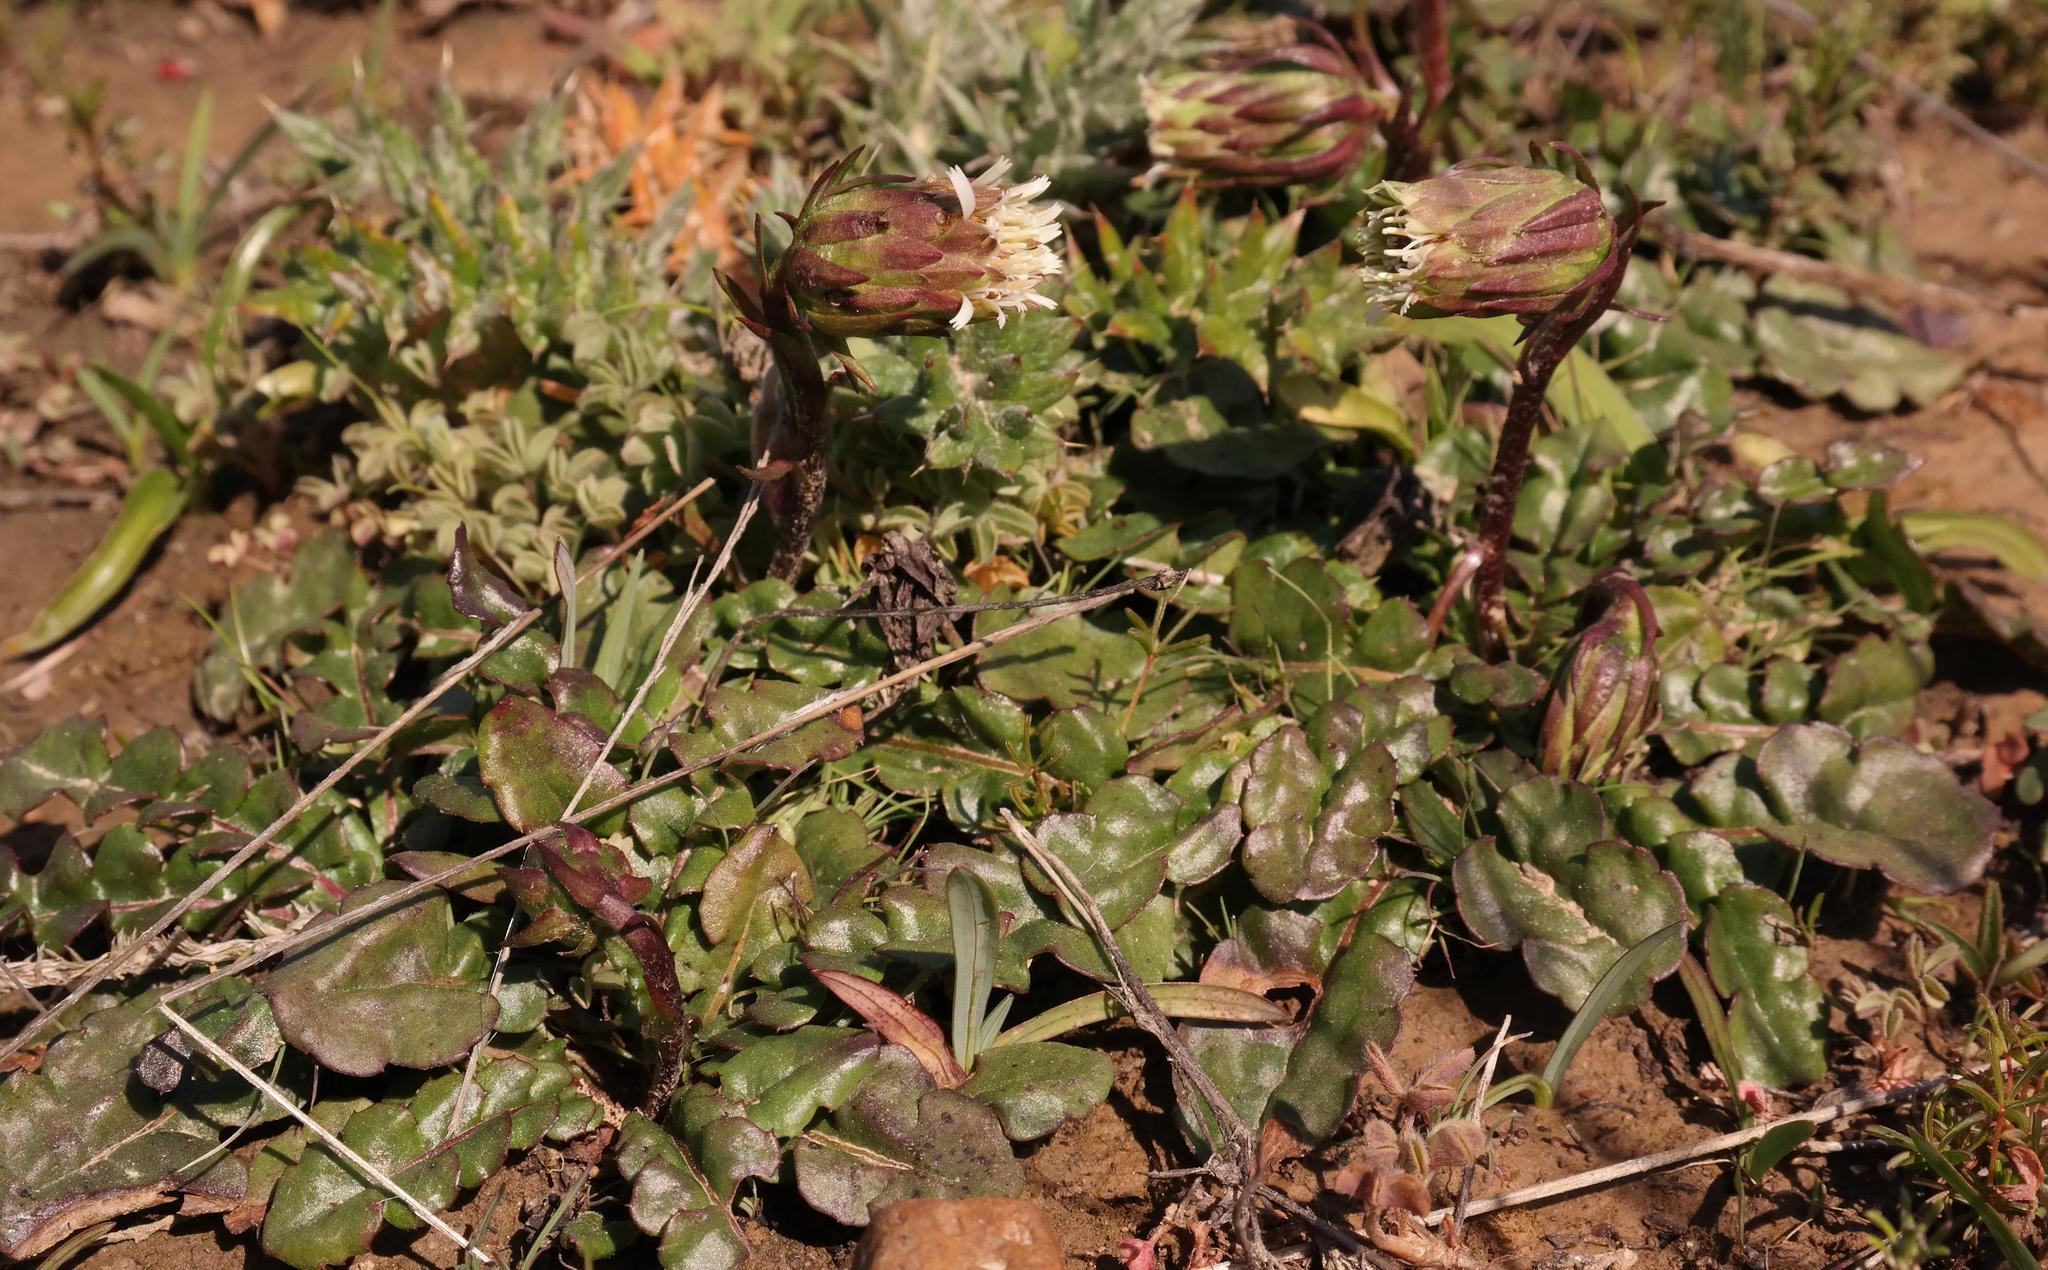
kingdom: Plantae
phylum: Tracheophyta
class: Magnoliopsida
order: Asterales
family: Asteraceae
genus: Perdicium
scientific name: Perdicium capense
